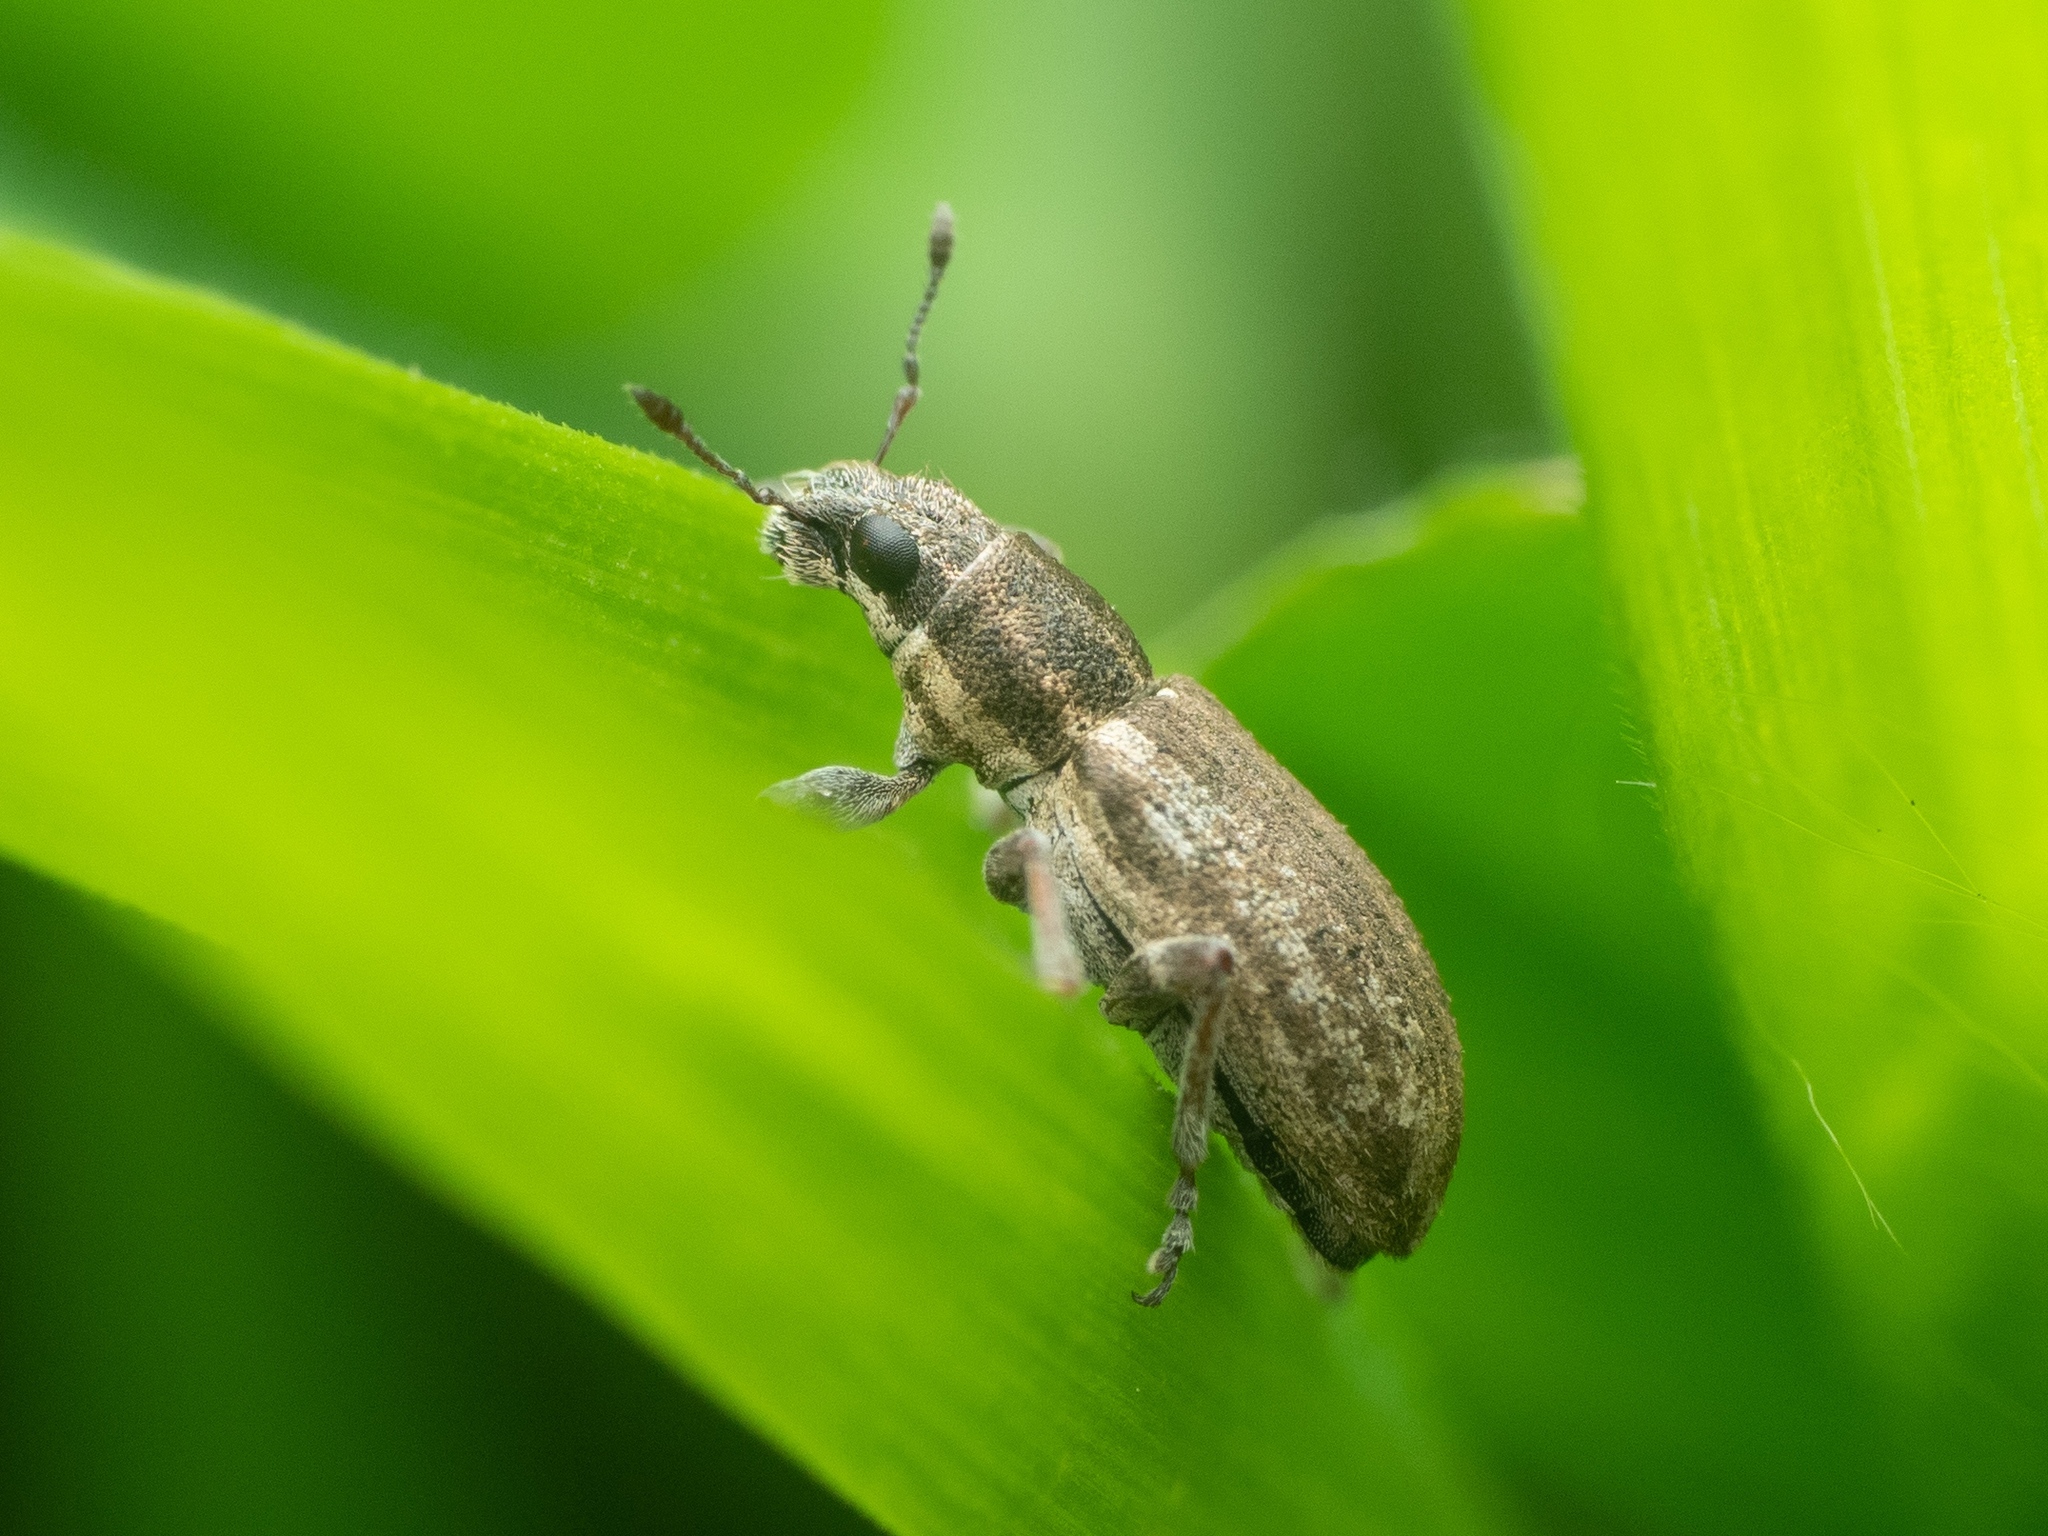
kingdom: Animalia
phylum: Arthropoda
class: Insecta
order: Coleoptera
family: Curculionidae
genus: Sitona
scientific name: Sitona humeralis
